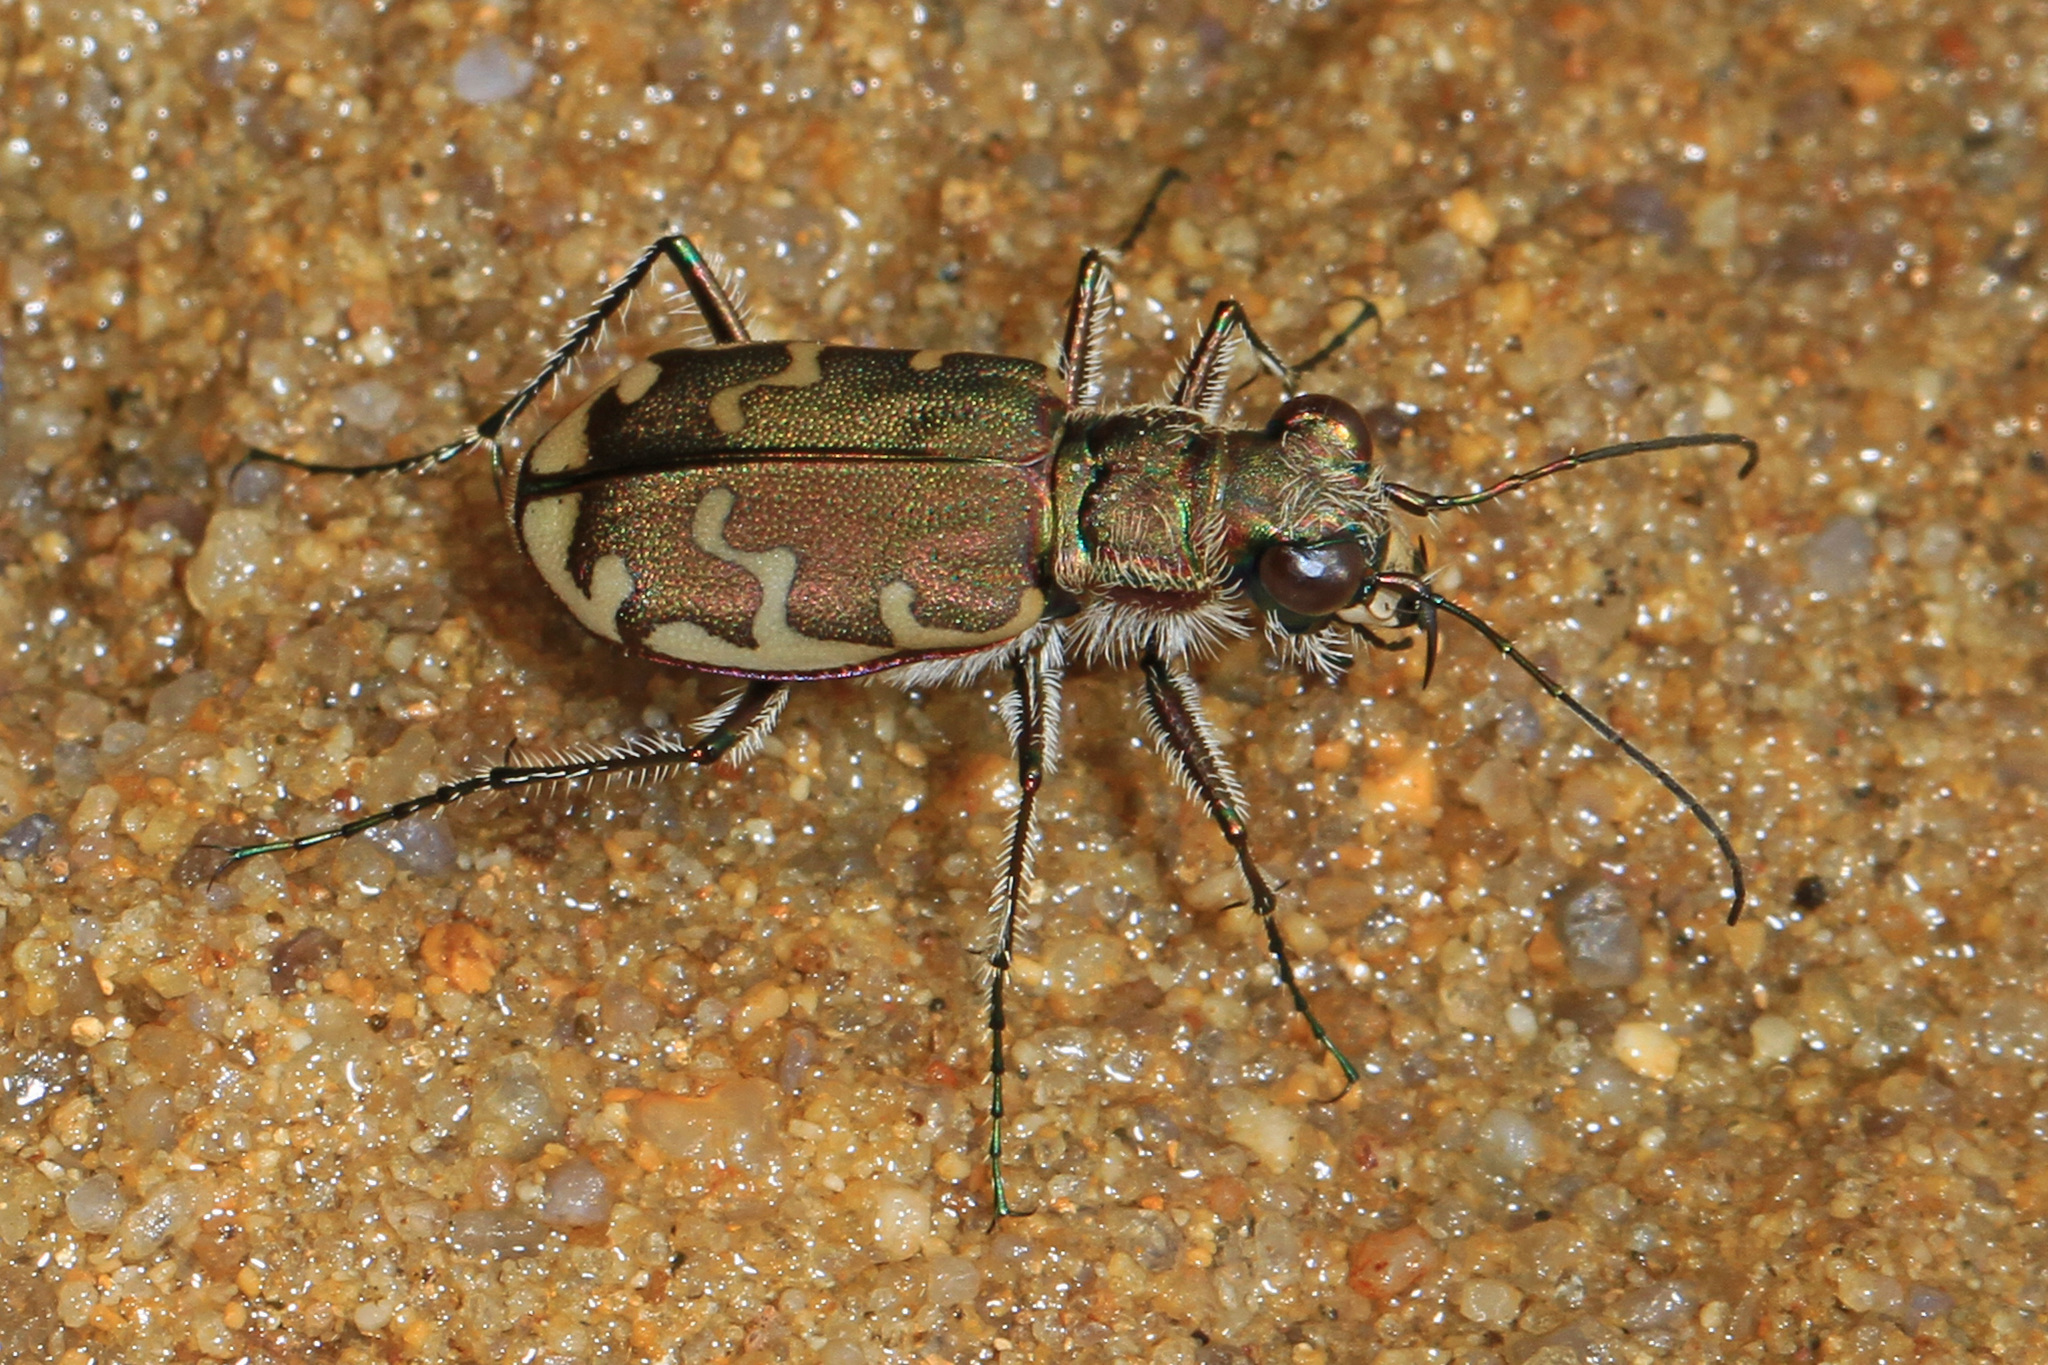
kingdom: Animalia
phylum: Arthropoda
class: Insecta
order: Coleoptera
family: Carabidae
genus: Cicindela
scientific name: Cicindela repanda
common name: Bronzed tiger beetle
